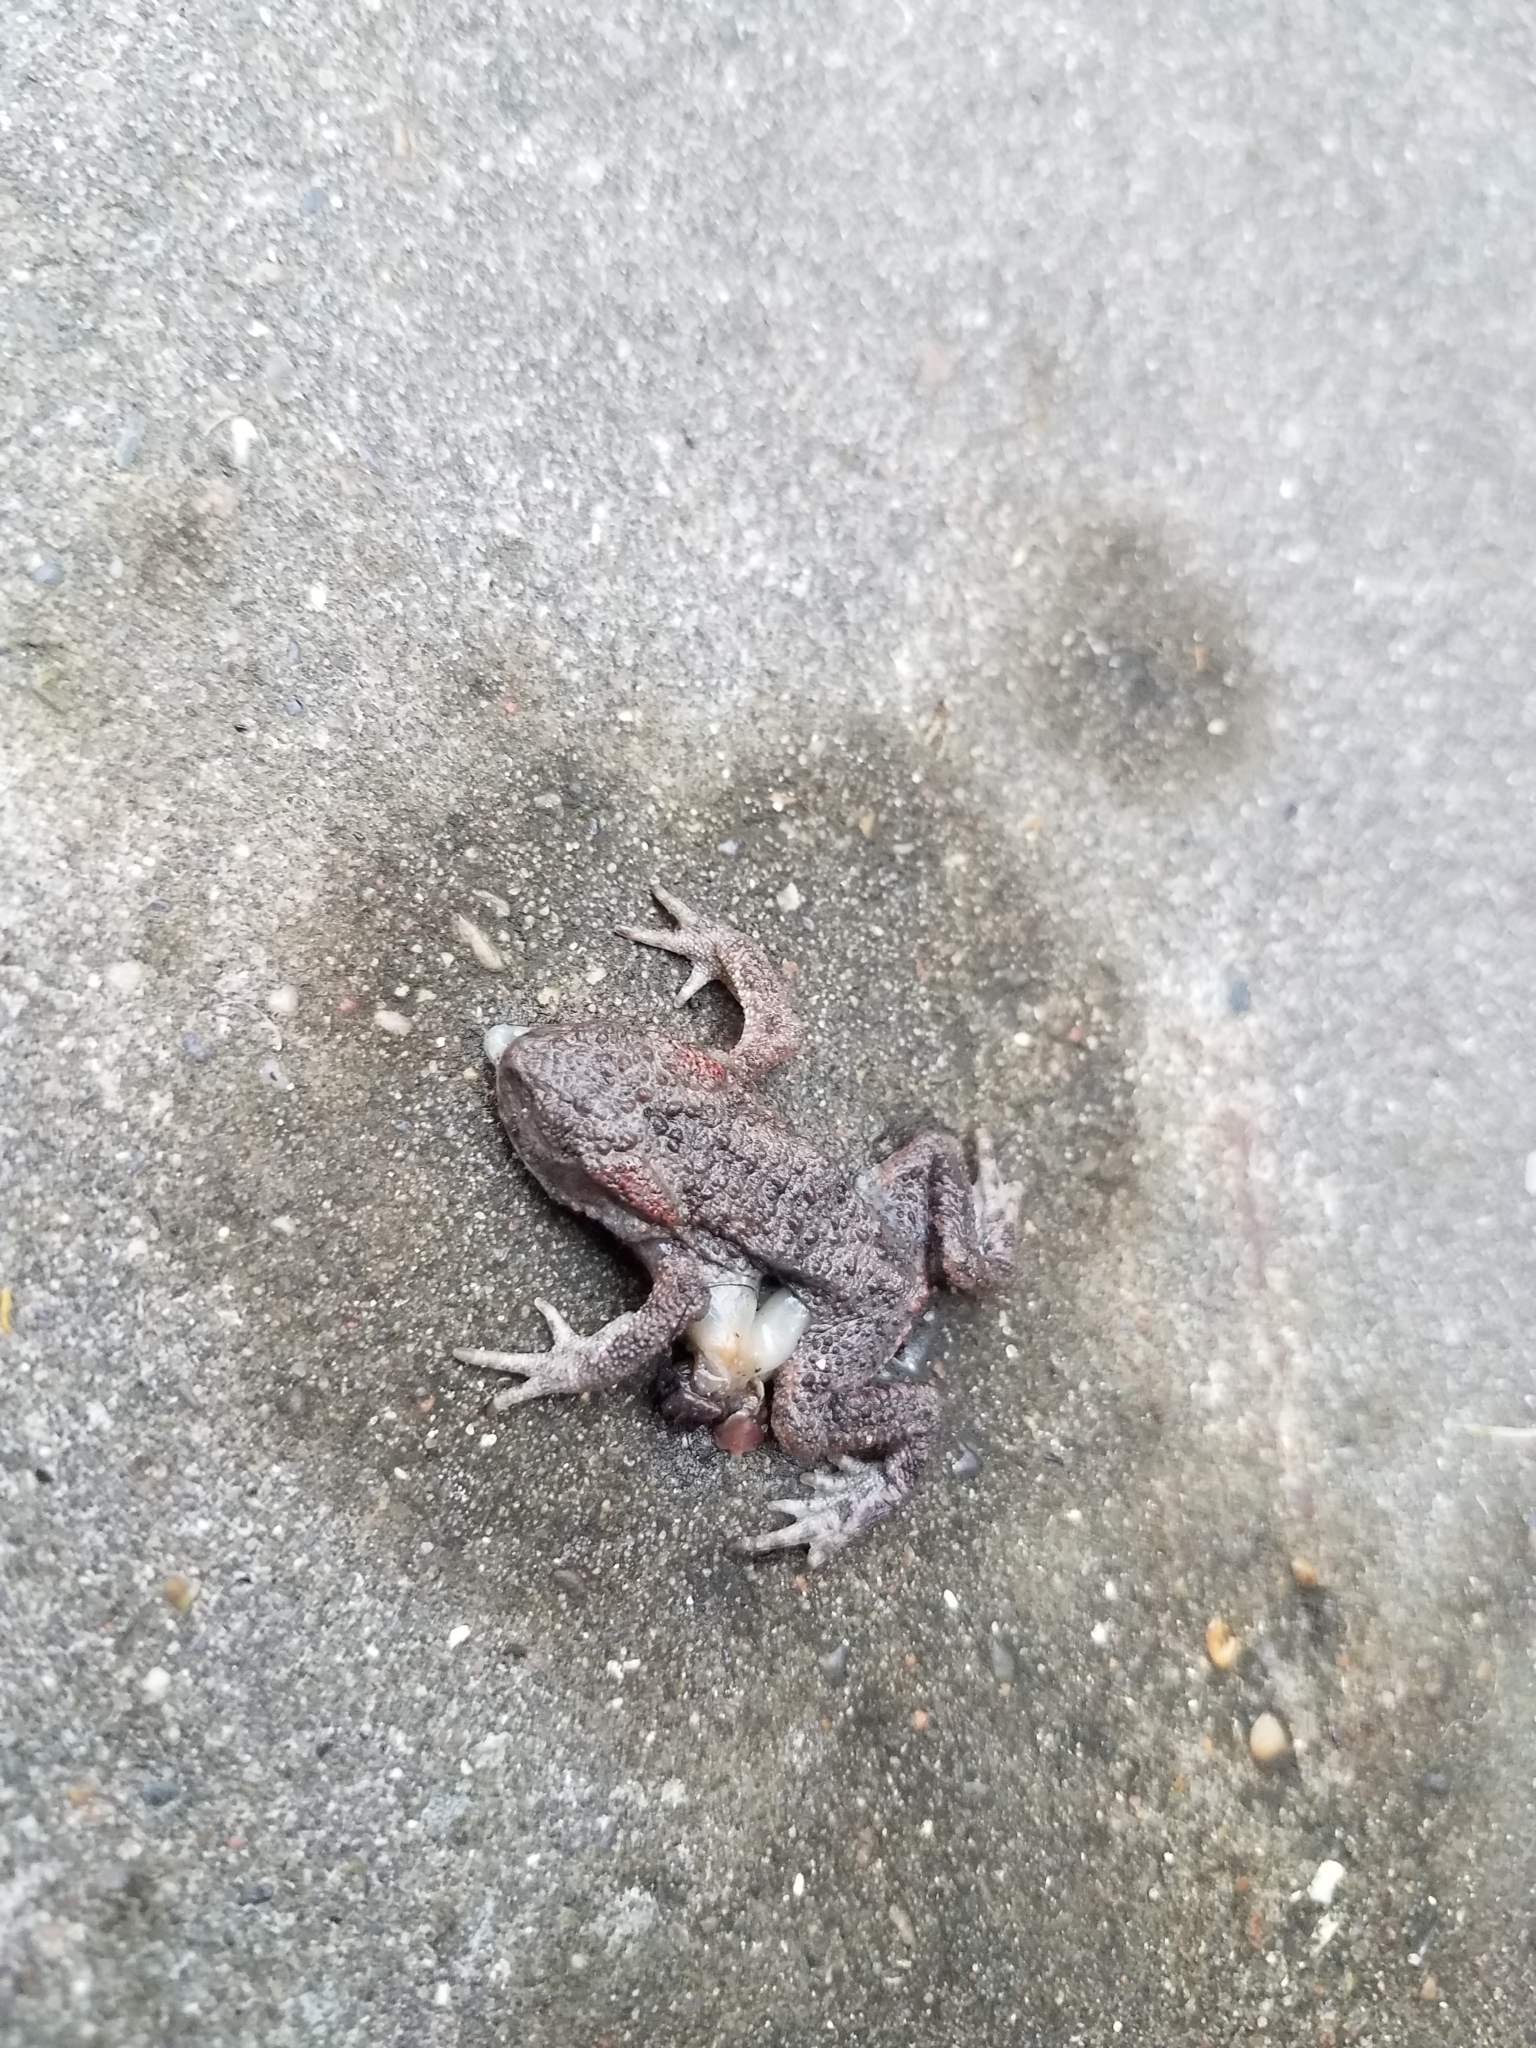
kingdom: Animalia
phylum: Chordata
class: Amphibia
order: Anura
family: Bufonidae
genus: Bufo
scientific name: Bufo bufo
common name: Common toad
